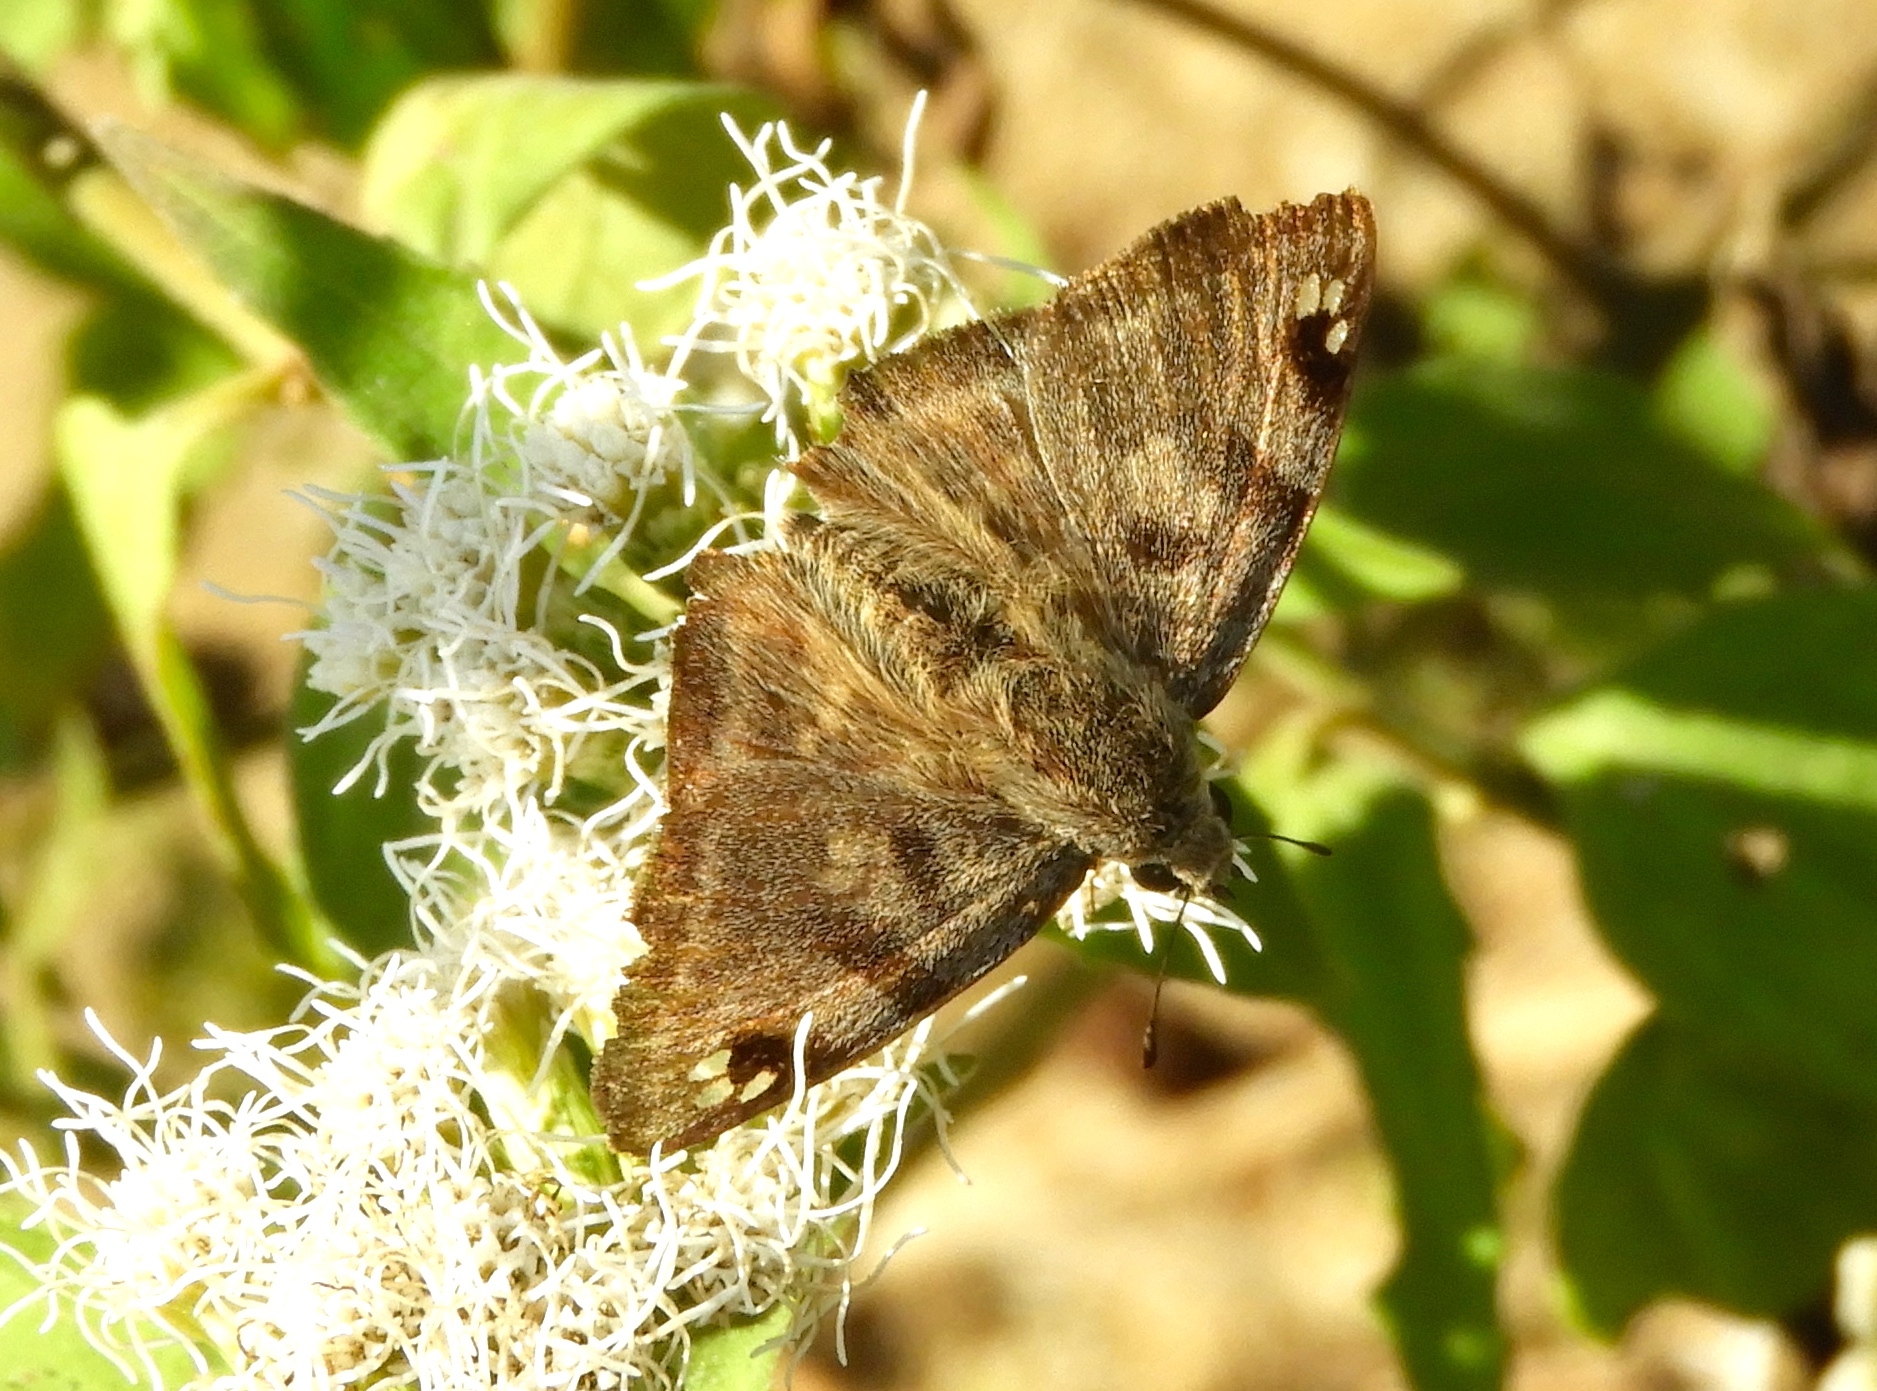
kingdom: Animalia
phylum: Arthropoda
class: Insecta
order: Lepidoptera
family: Hesperiidae
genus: Arteurotia
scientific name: Arteurotia tractipennis
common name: Starred skipper
